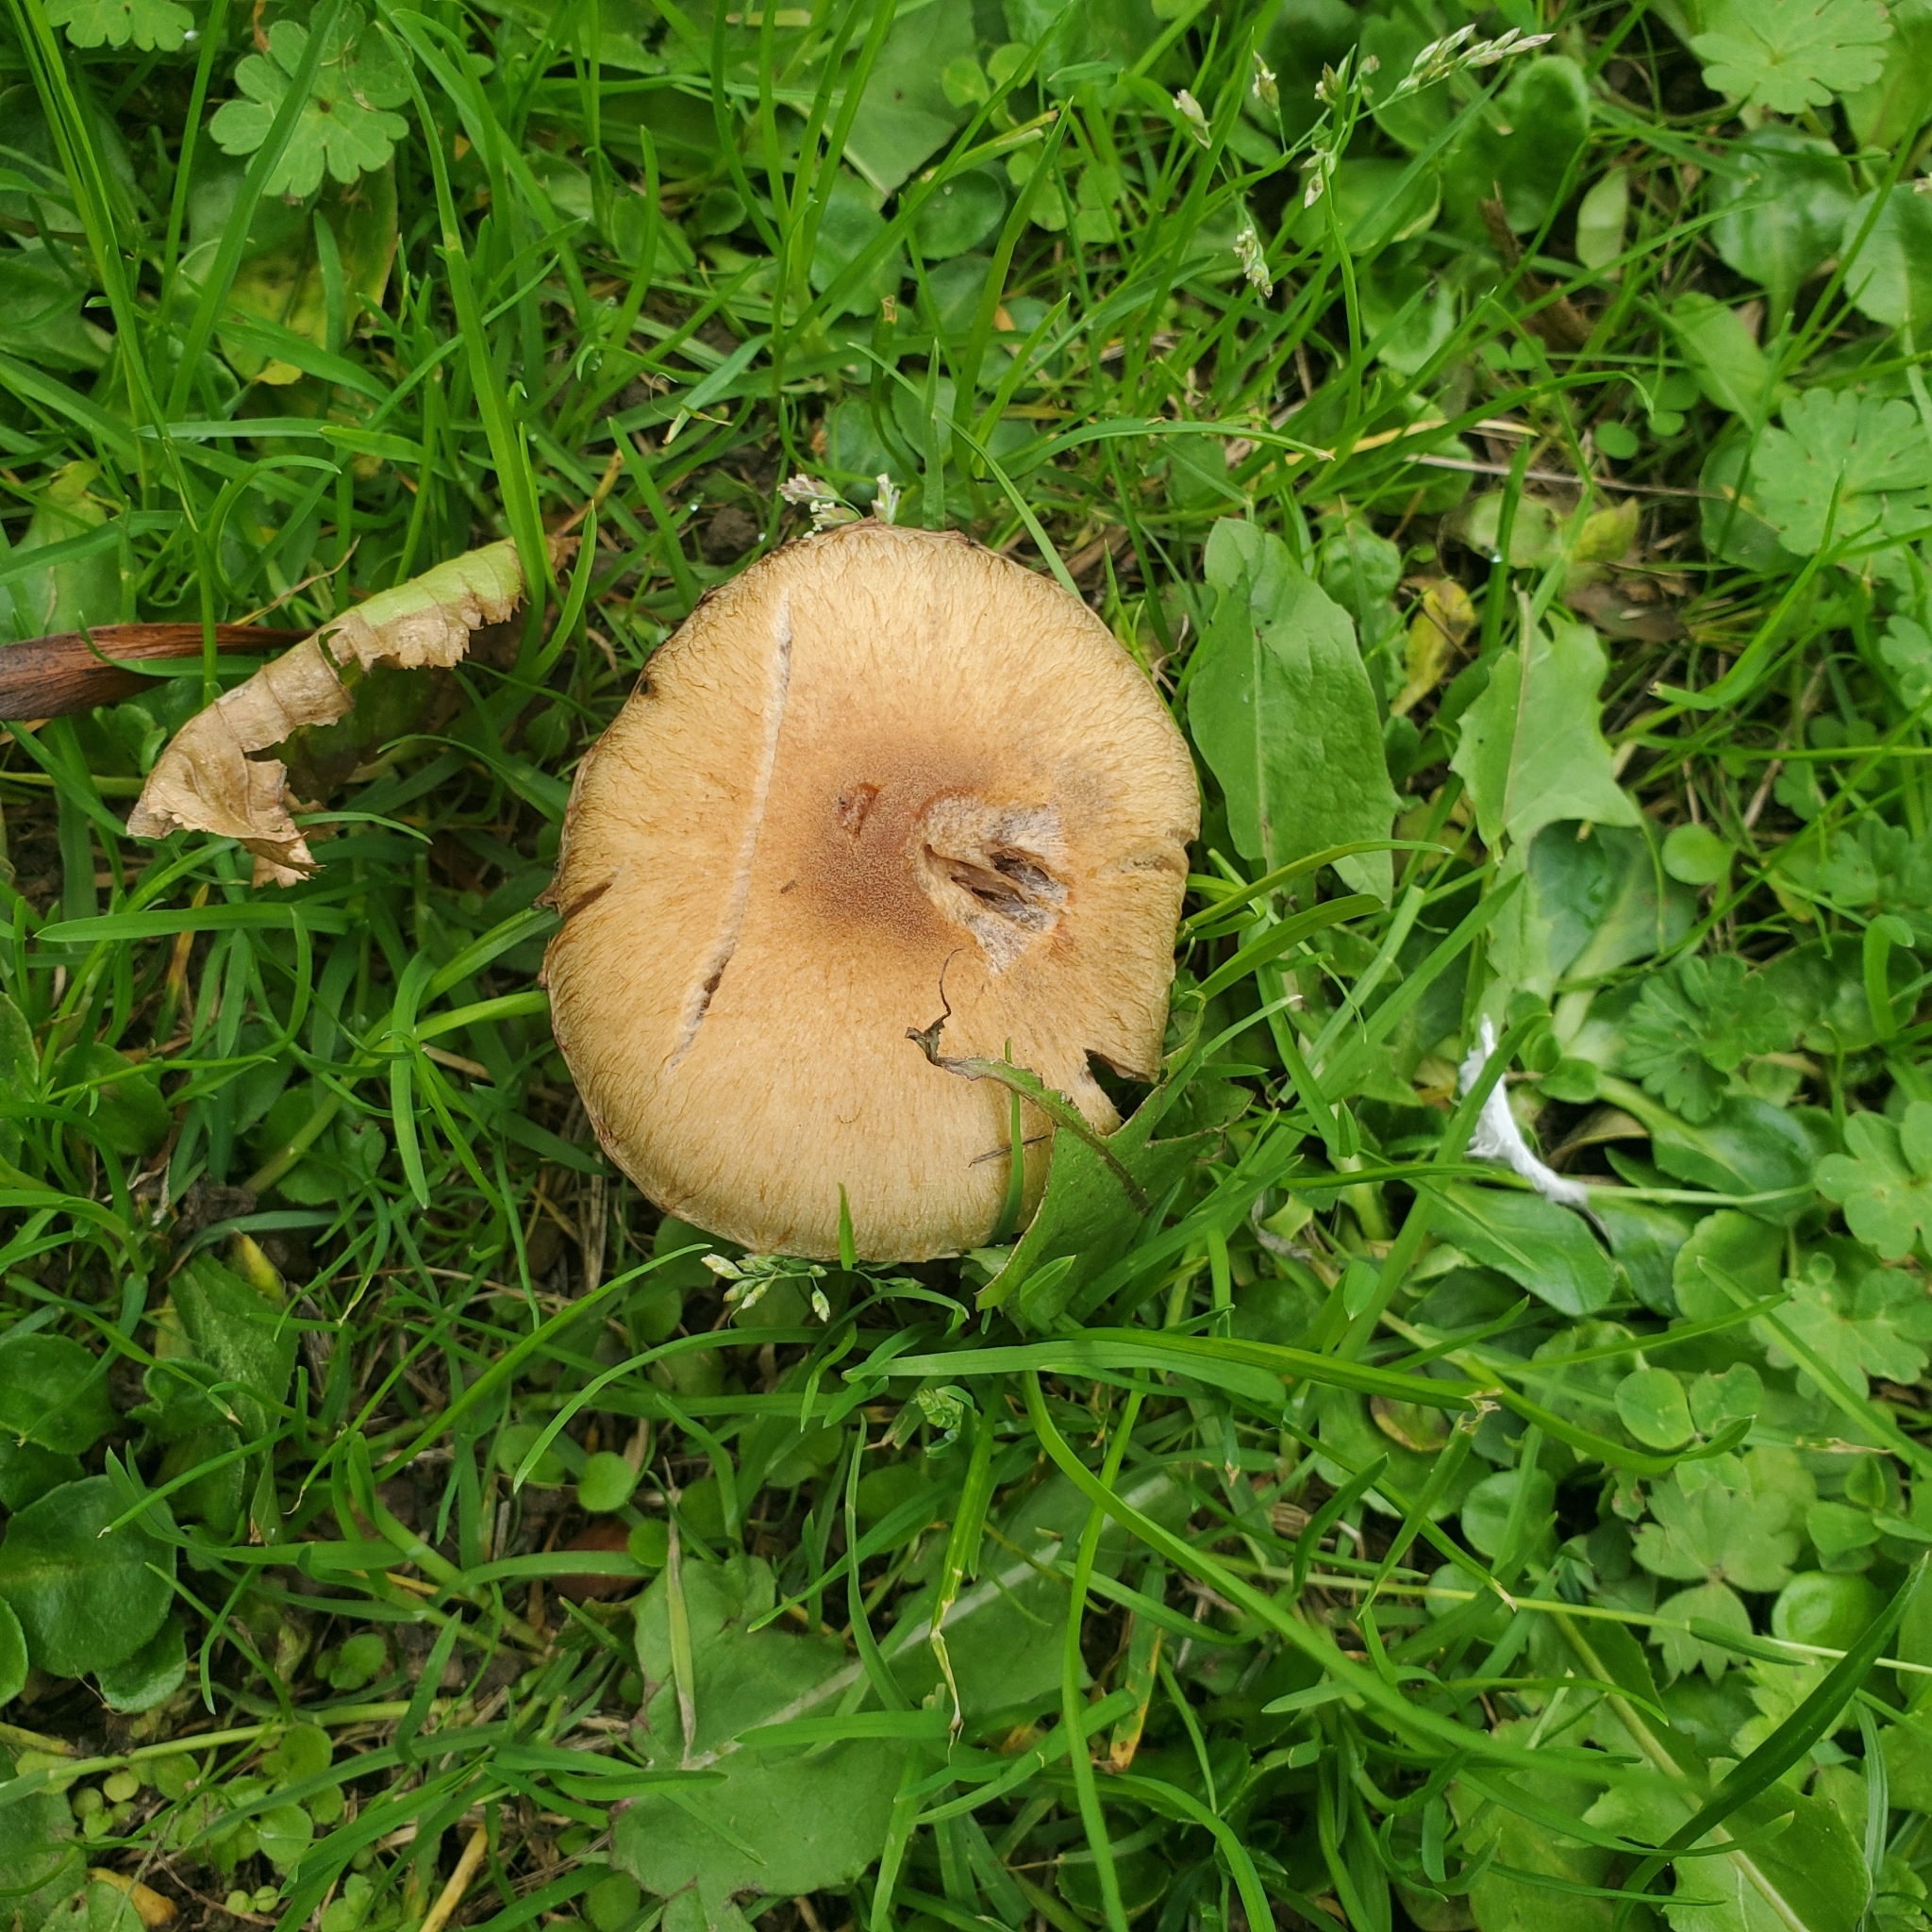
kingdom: Fungi
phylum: Basidiomycota
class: Agaricomycetes
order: Agaricales
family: Psathyrellaceae
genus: Lacrymaria
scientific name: Lacrymaria lacrymabunda
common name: Weeping widow
